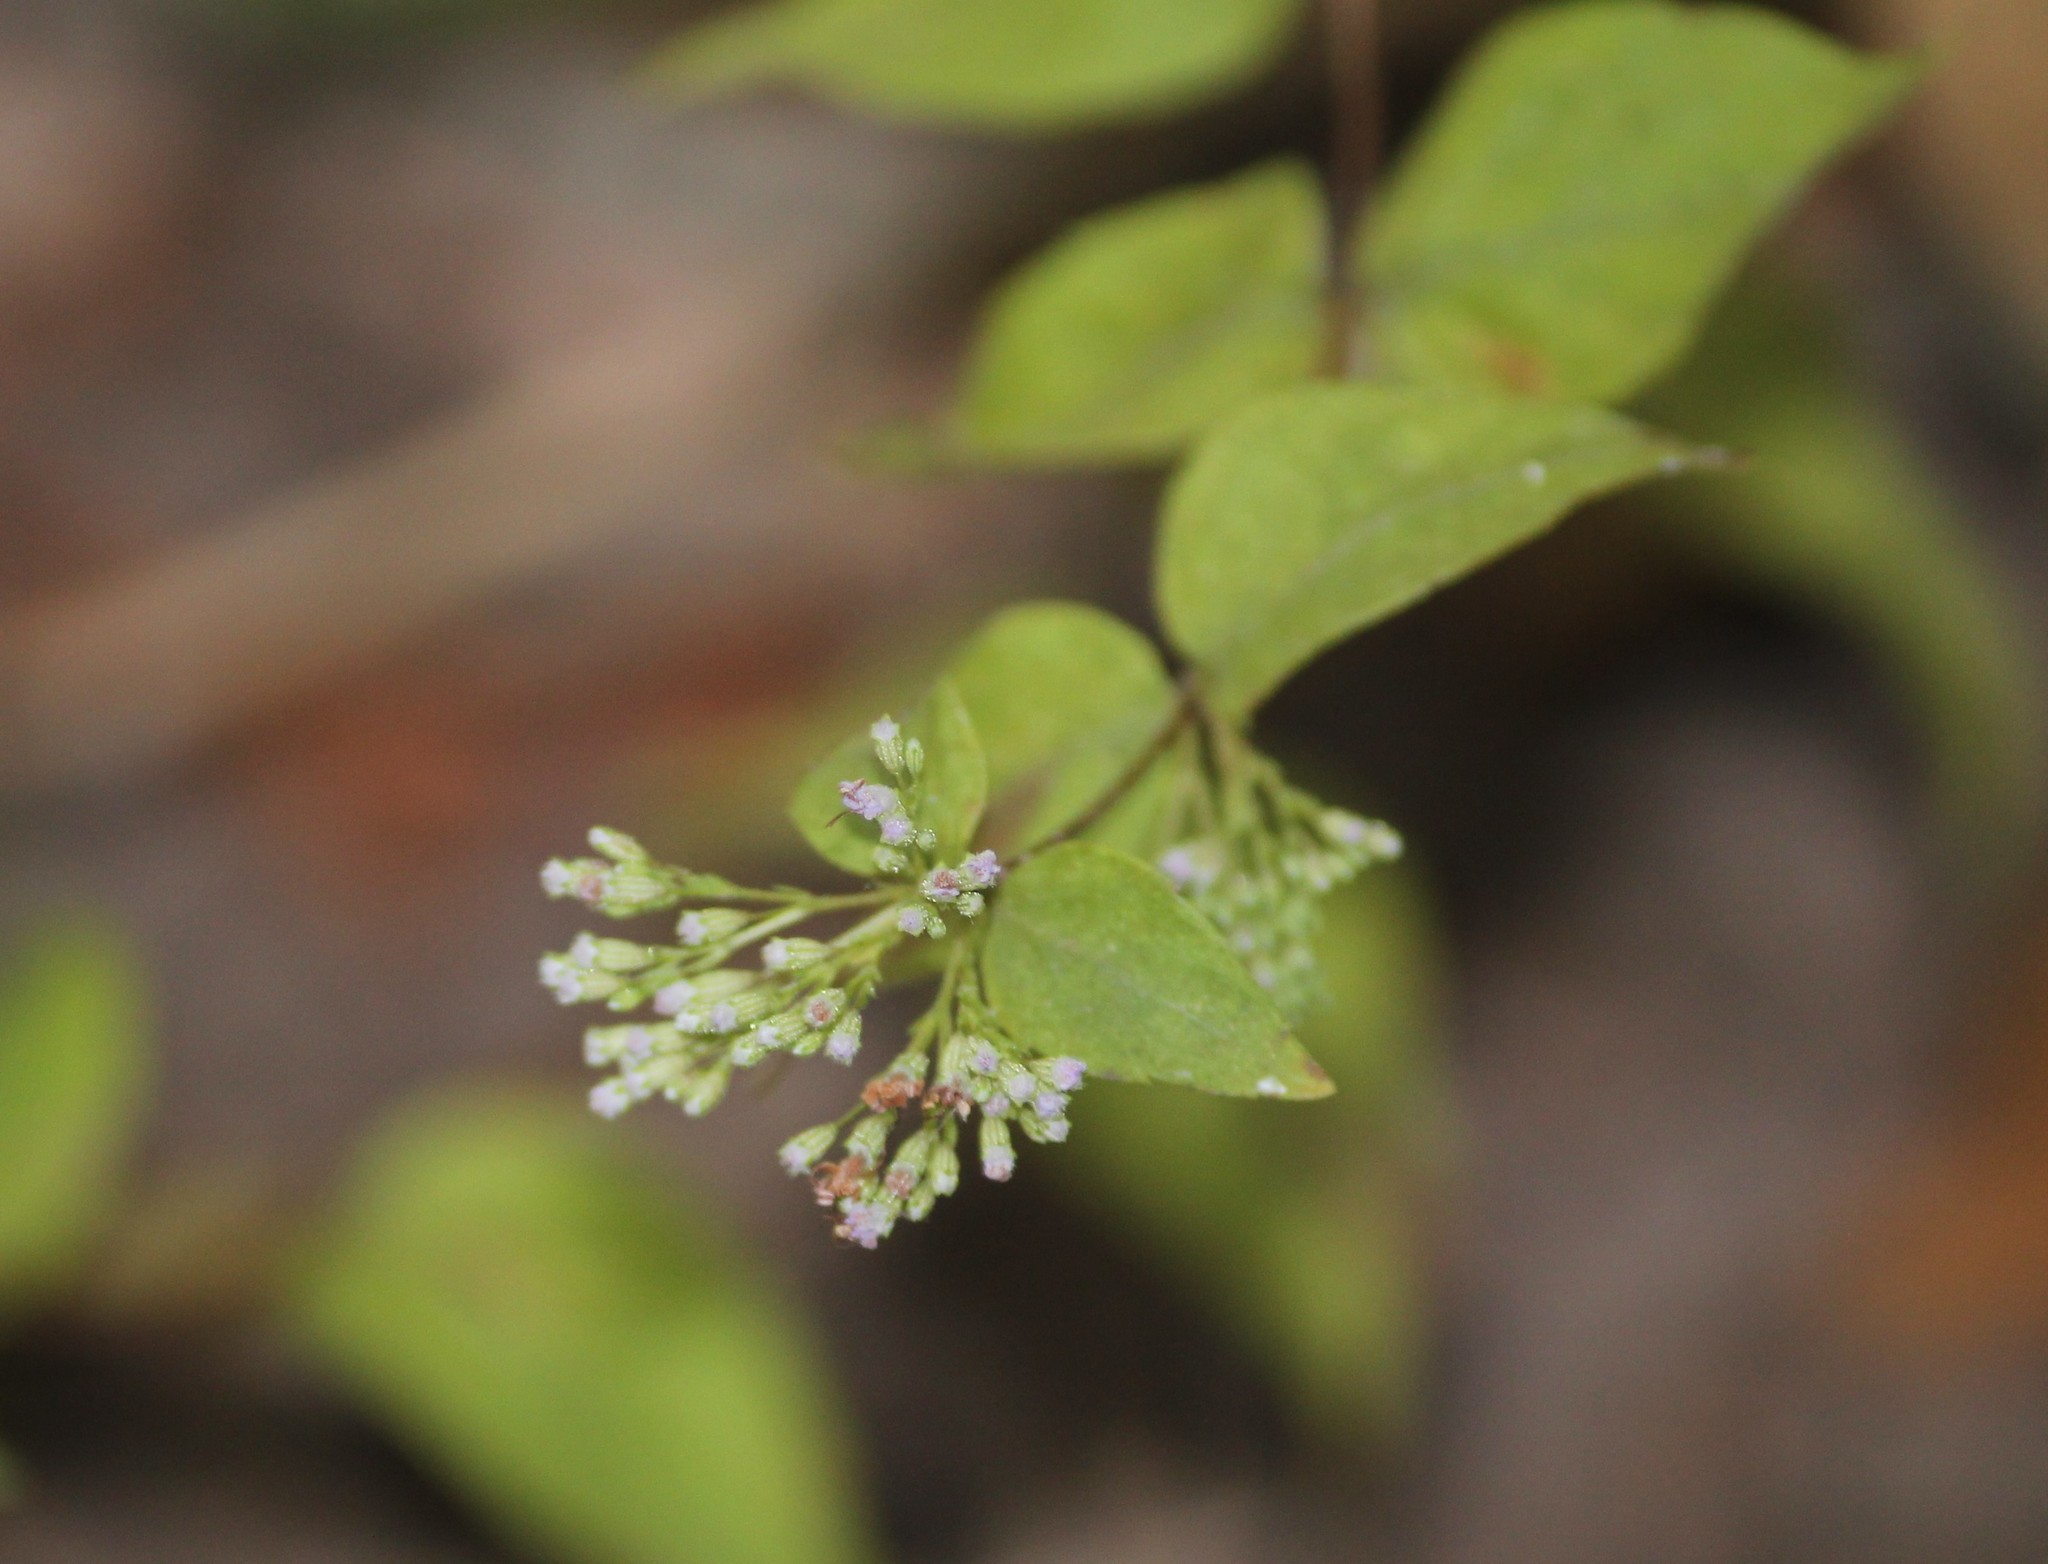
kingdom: Plantae
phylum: Tracheophyta
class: Magnoliopsida
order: Lamiales
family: Lamiaceae
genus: Cunila
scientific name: Cunila origanoides
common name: American dittany
